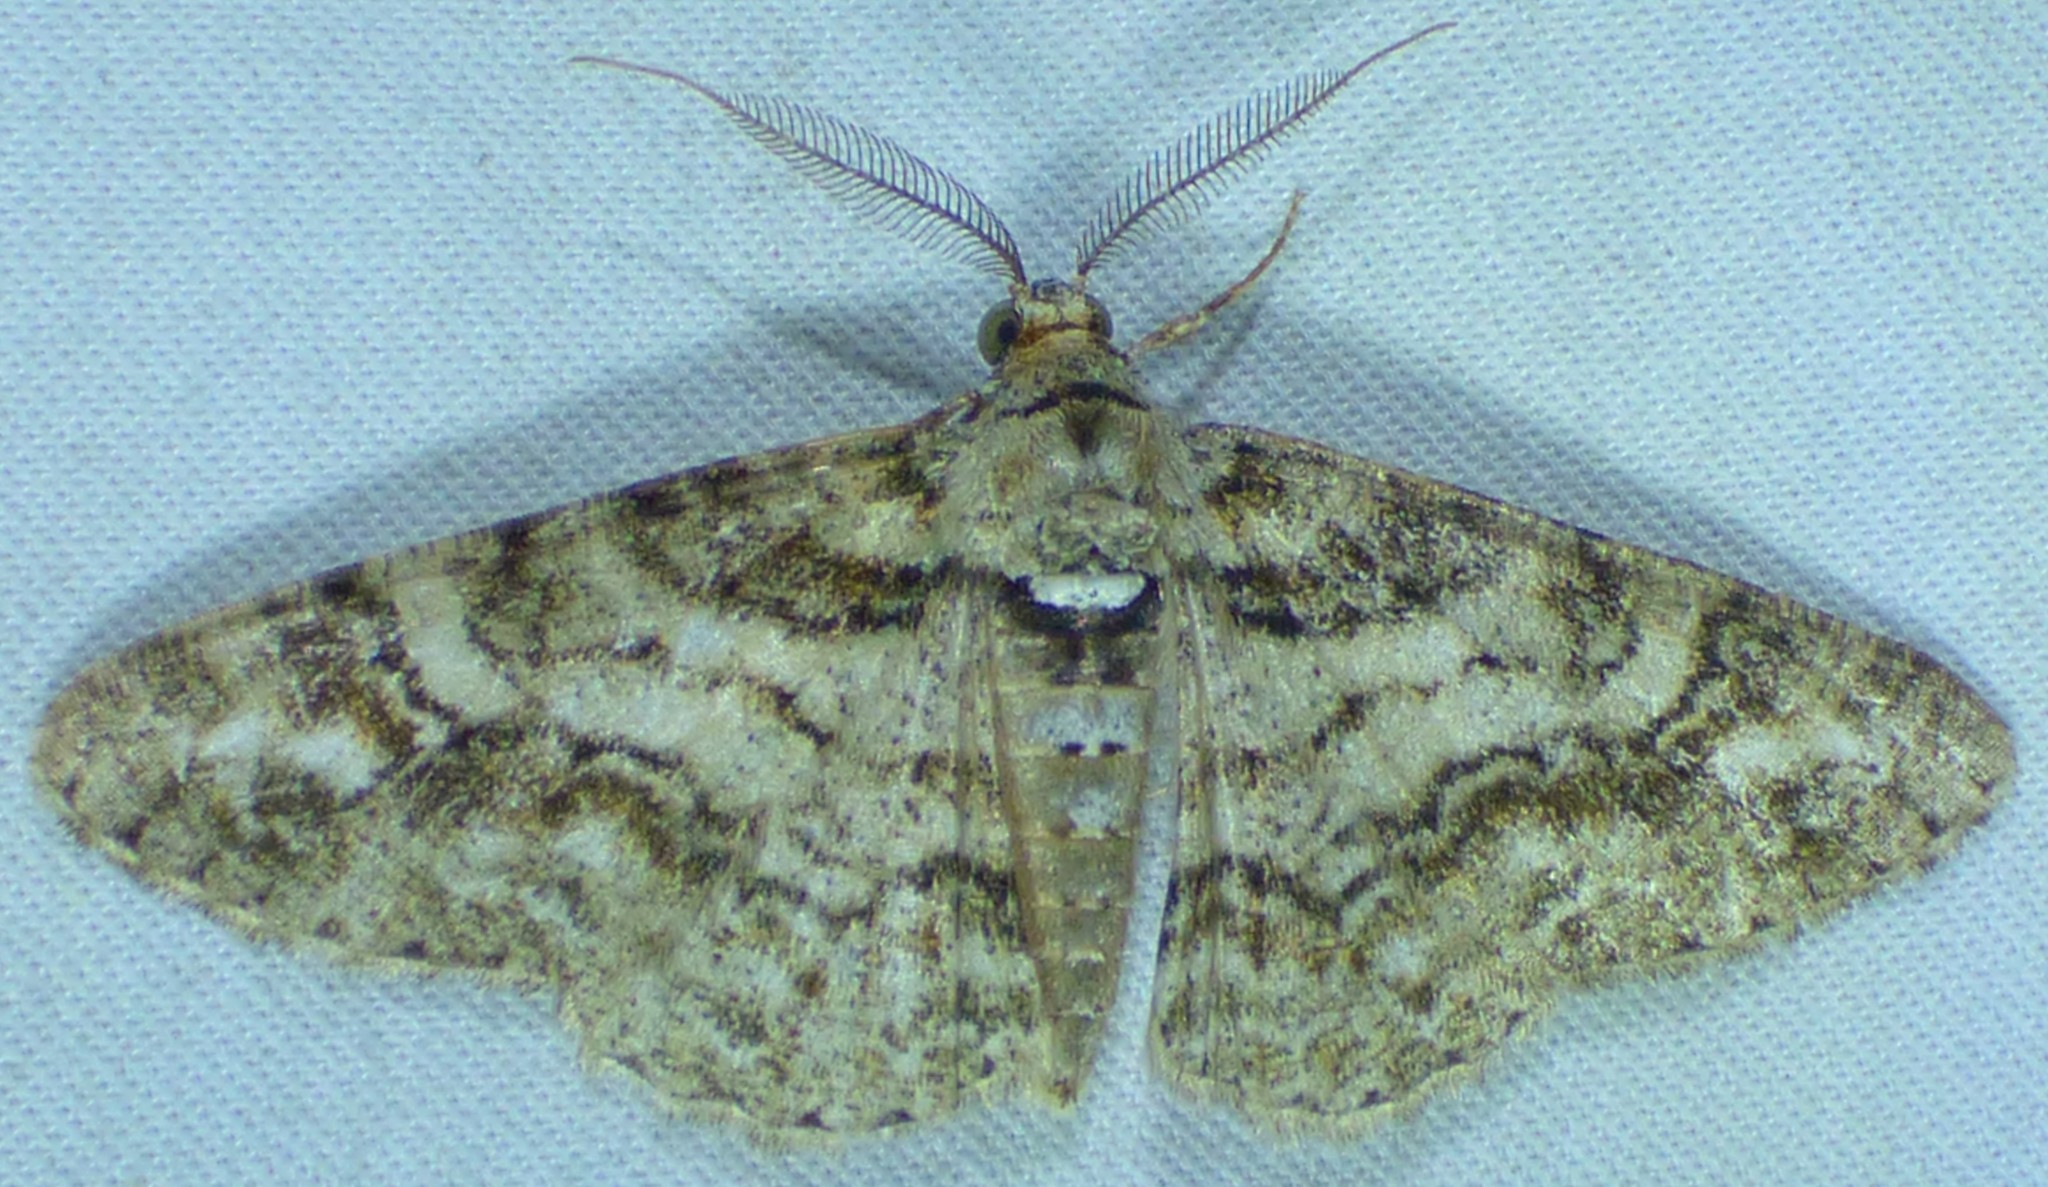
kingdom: Animalia
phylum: Arthropoda
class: Insecta
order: Lepidoptera
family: Geometridae
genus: Cleora
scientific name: Cleora sublunaria
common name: Double-lined gray
